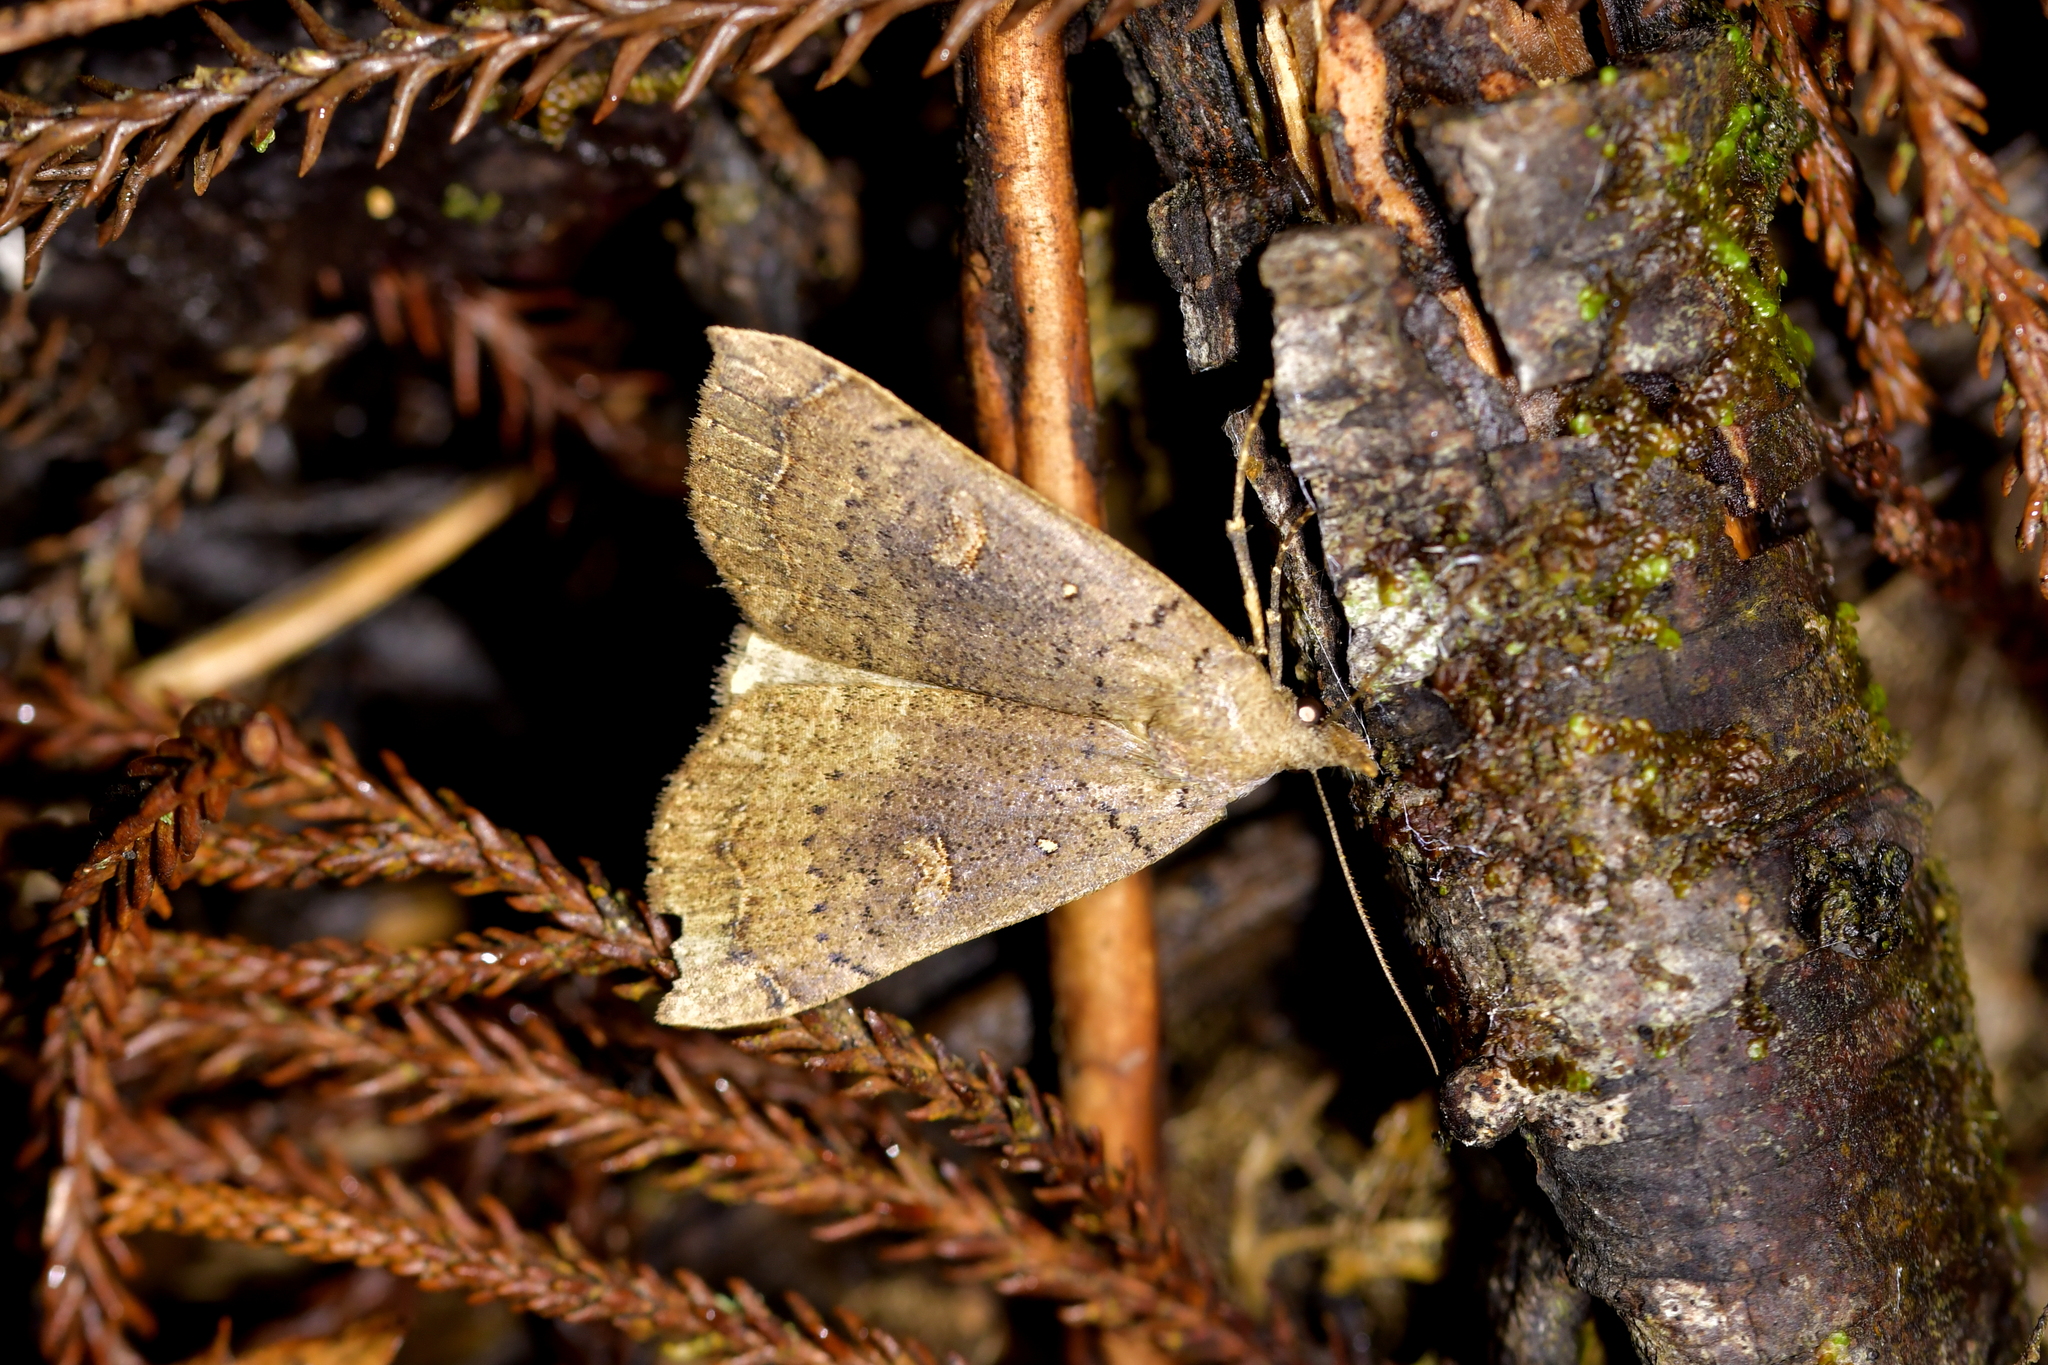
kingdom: Animalia
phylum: Arthropoda
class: Insecta
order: Lepidoptera
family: Erebidae
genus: Rhapsa
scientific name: Rhapsa scotosialis
